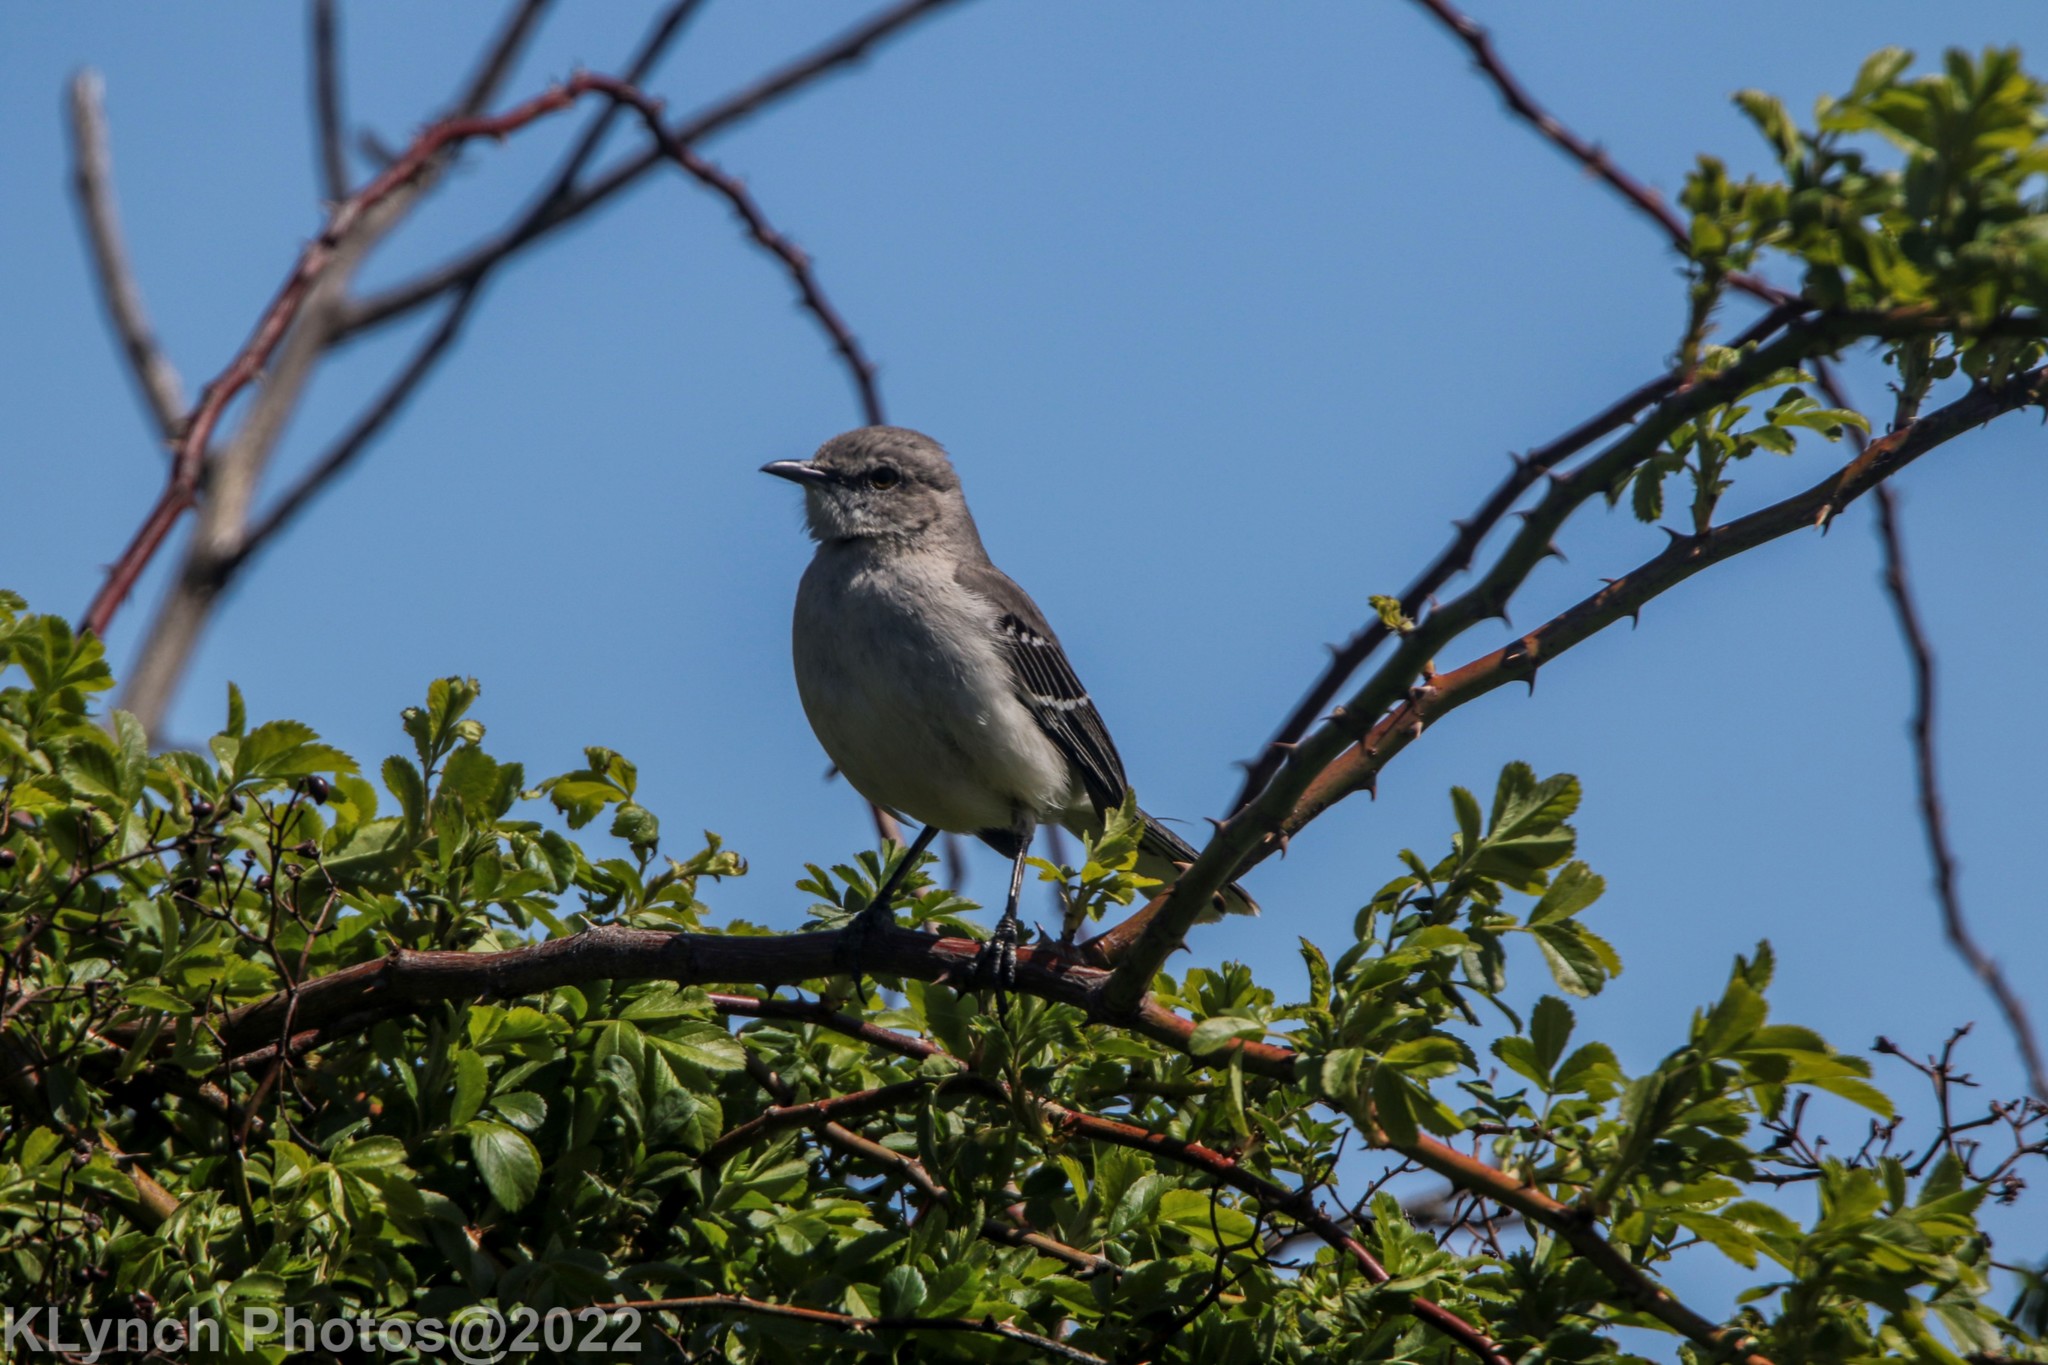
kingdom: Animalia
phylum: Chordata
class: Aves
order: Passeriformes
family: Mimidae
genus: Mimus
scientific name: Mimus polyglottos
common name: Northern mockingbird
